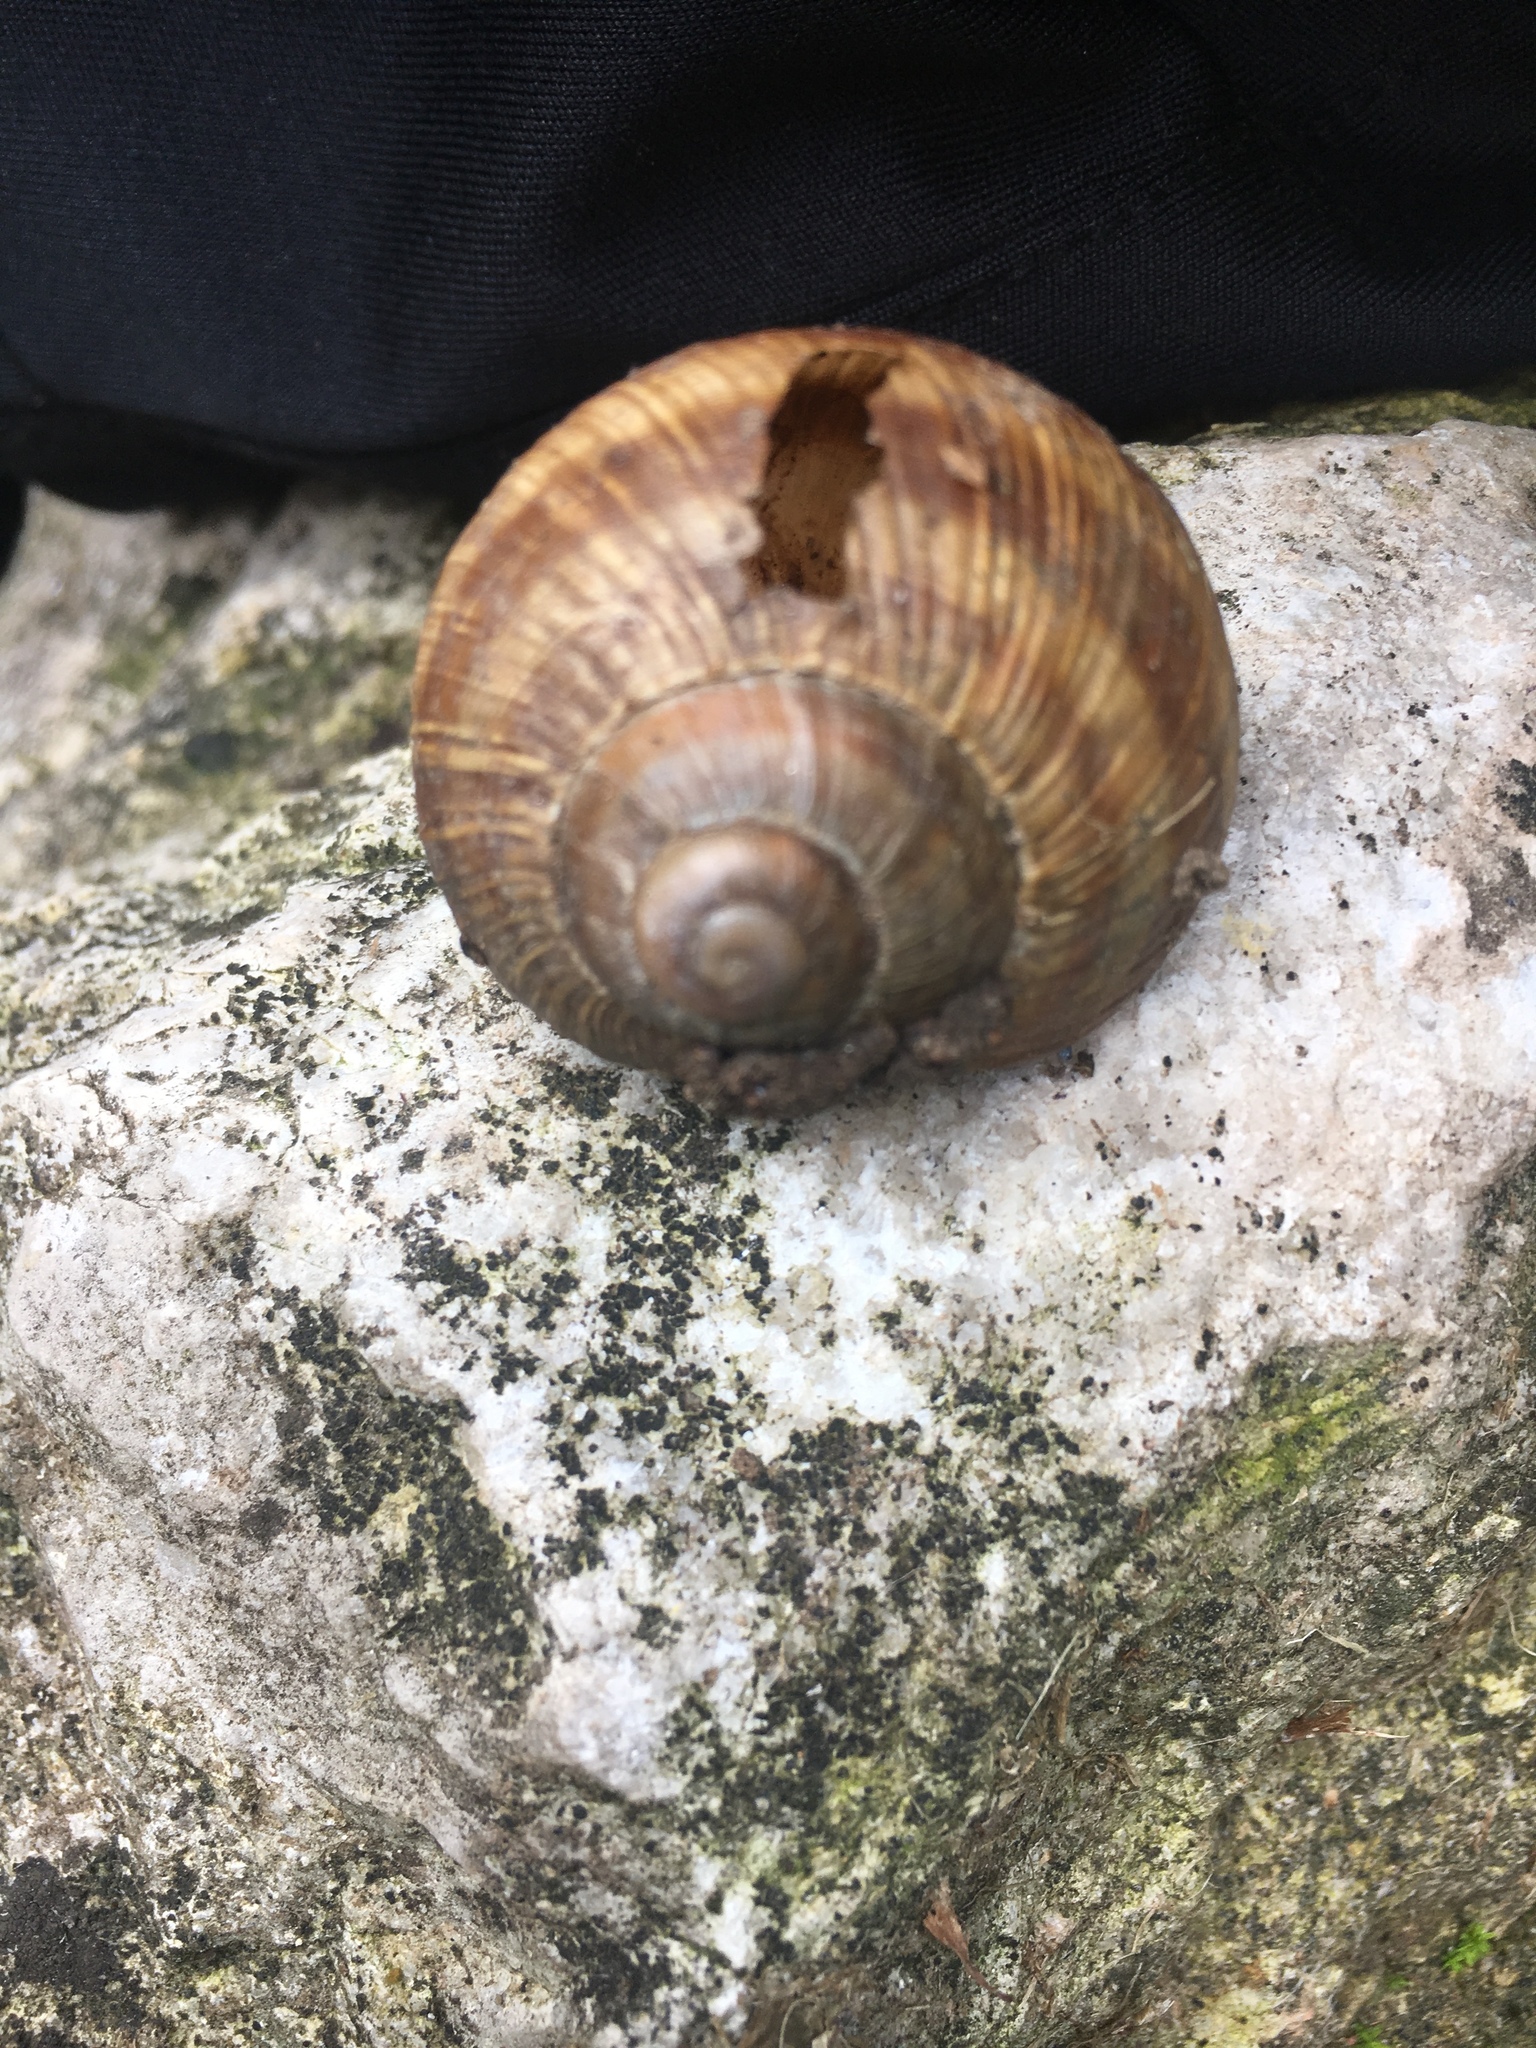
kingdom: Animalia
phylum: Mollusca
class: Gastropoda
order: Stylommatophora
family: Helicidae
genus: Helix
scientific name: Helix pomatia
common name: Roman snail
